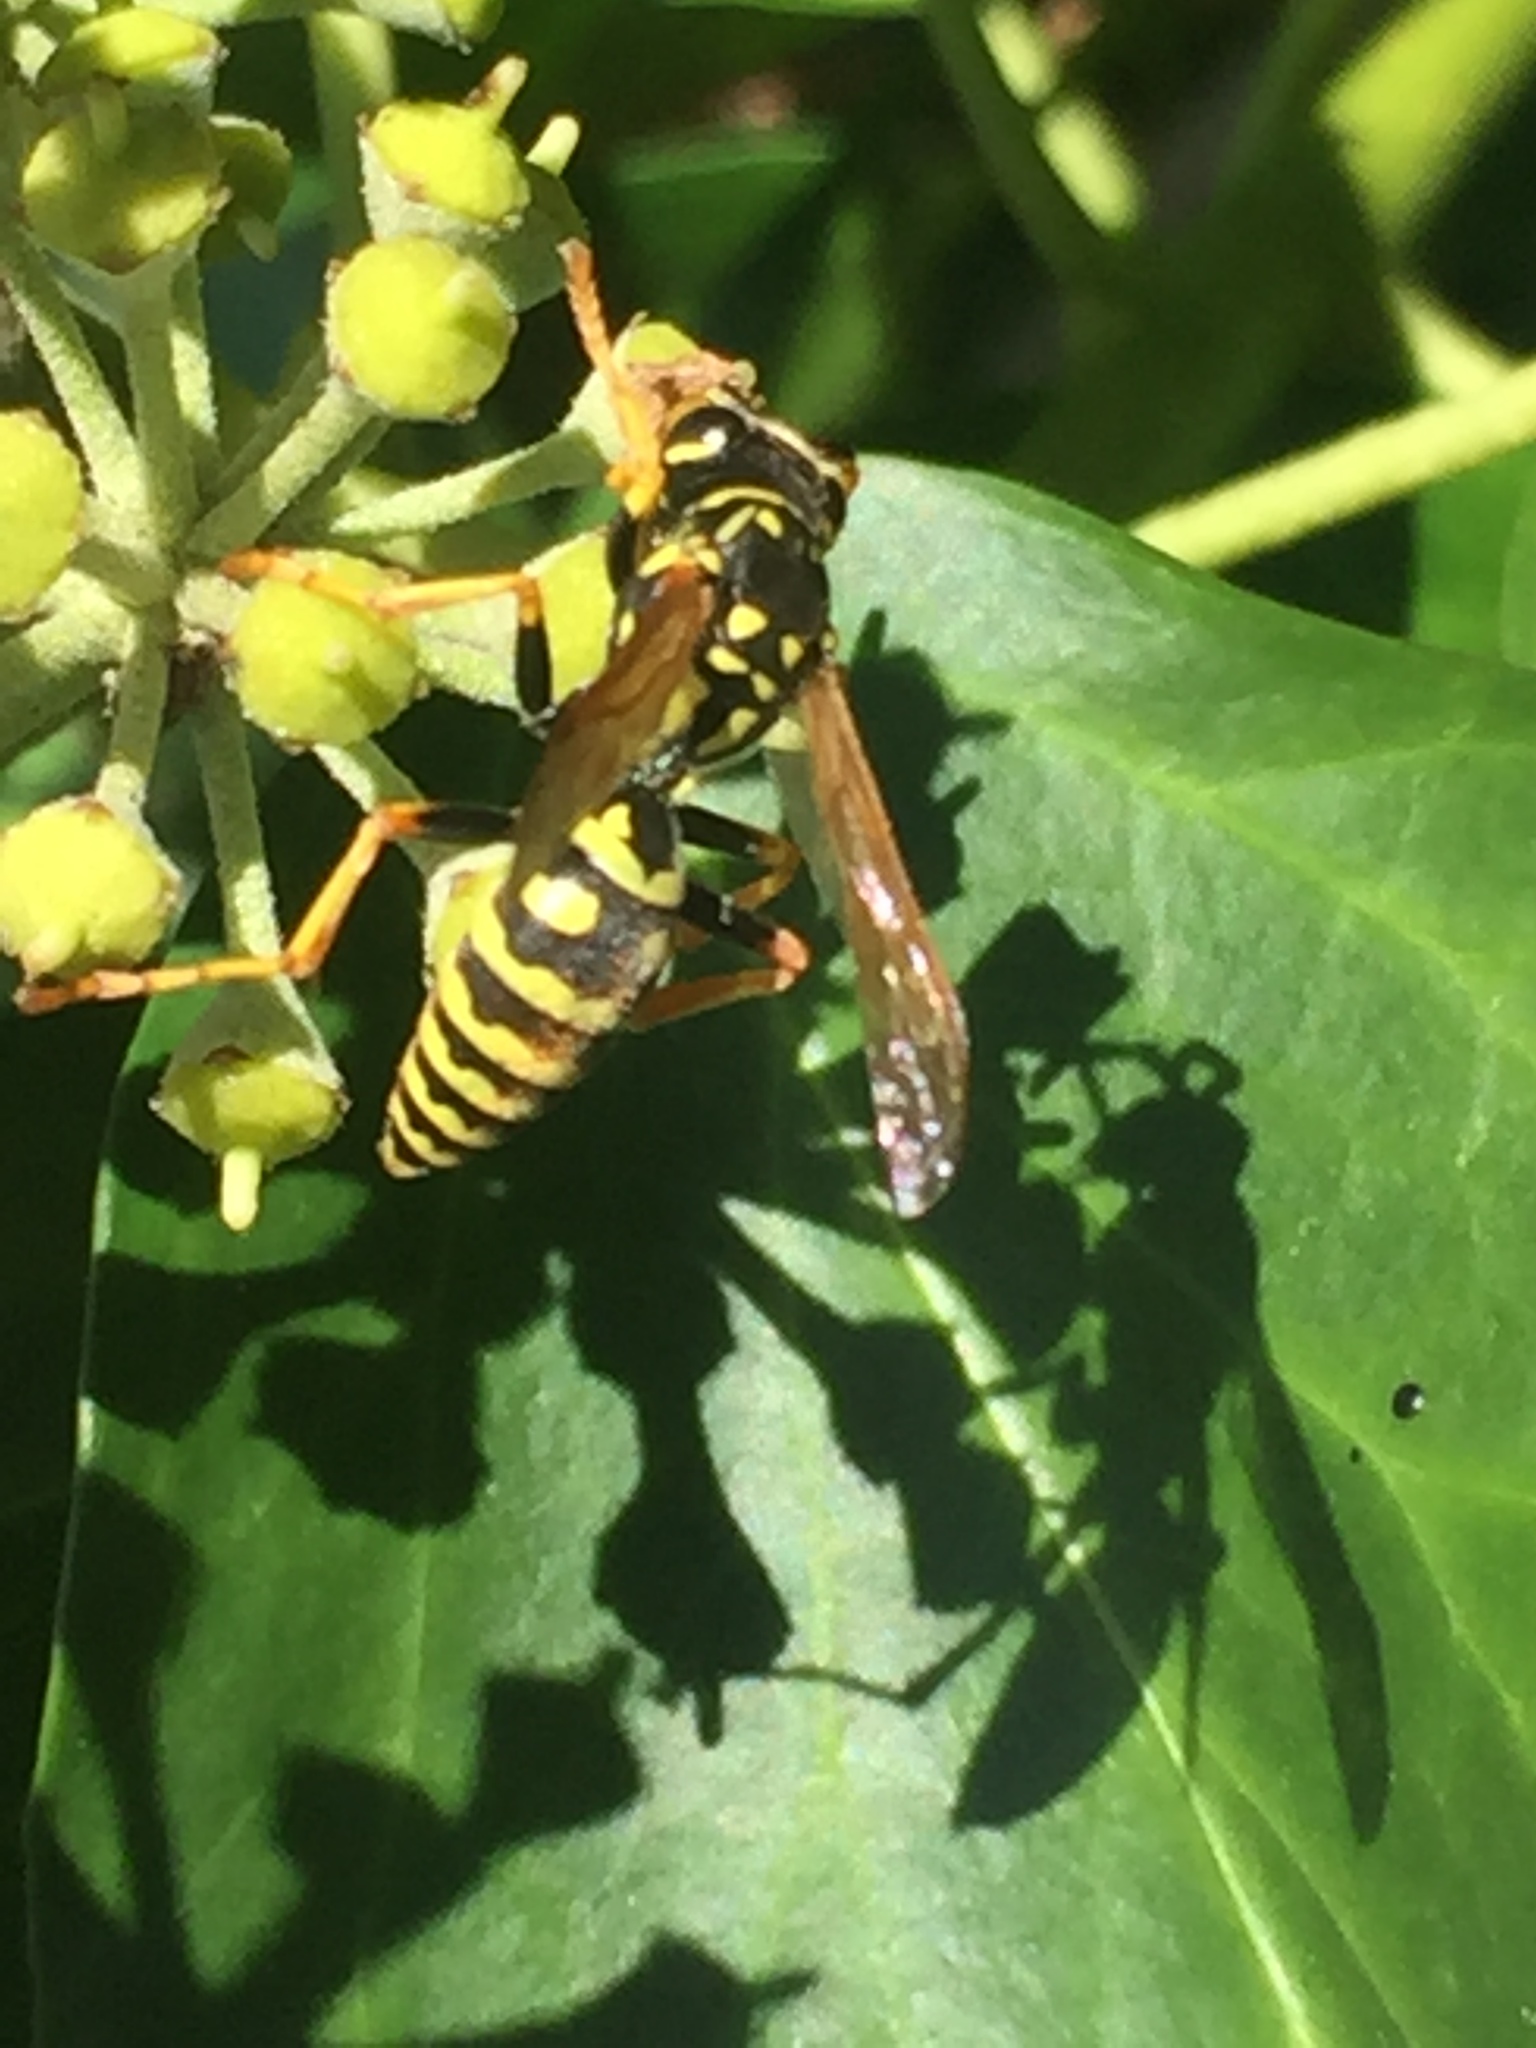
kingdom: Animalia
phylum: Arthropoda
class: Insecta
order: Hymenoptera
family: Eumenidae
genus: Polistes
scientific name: Polistes dominula
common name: Paper wasp
